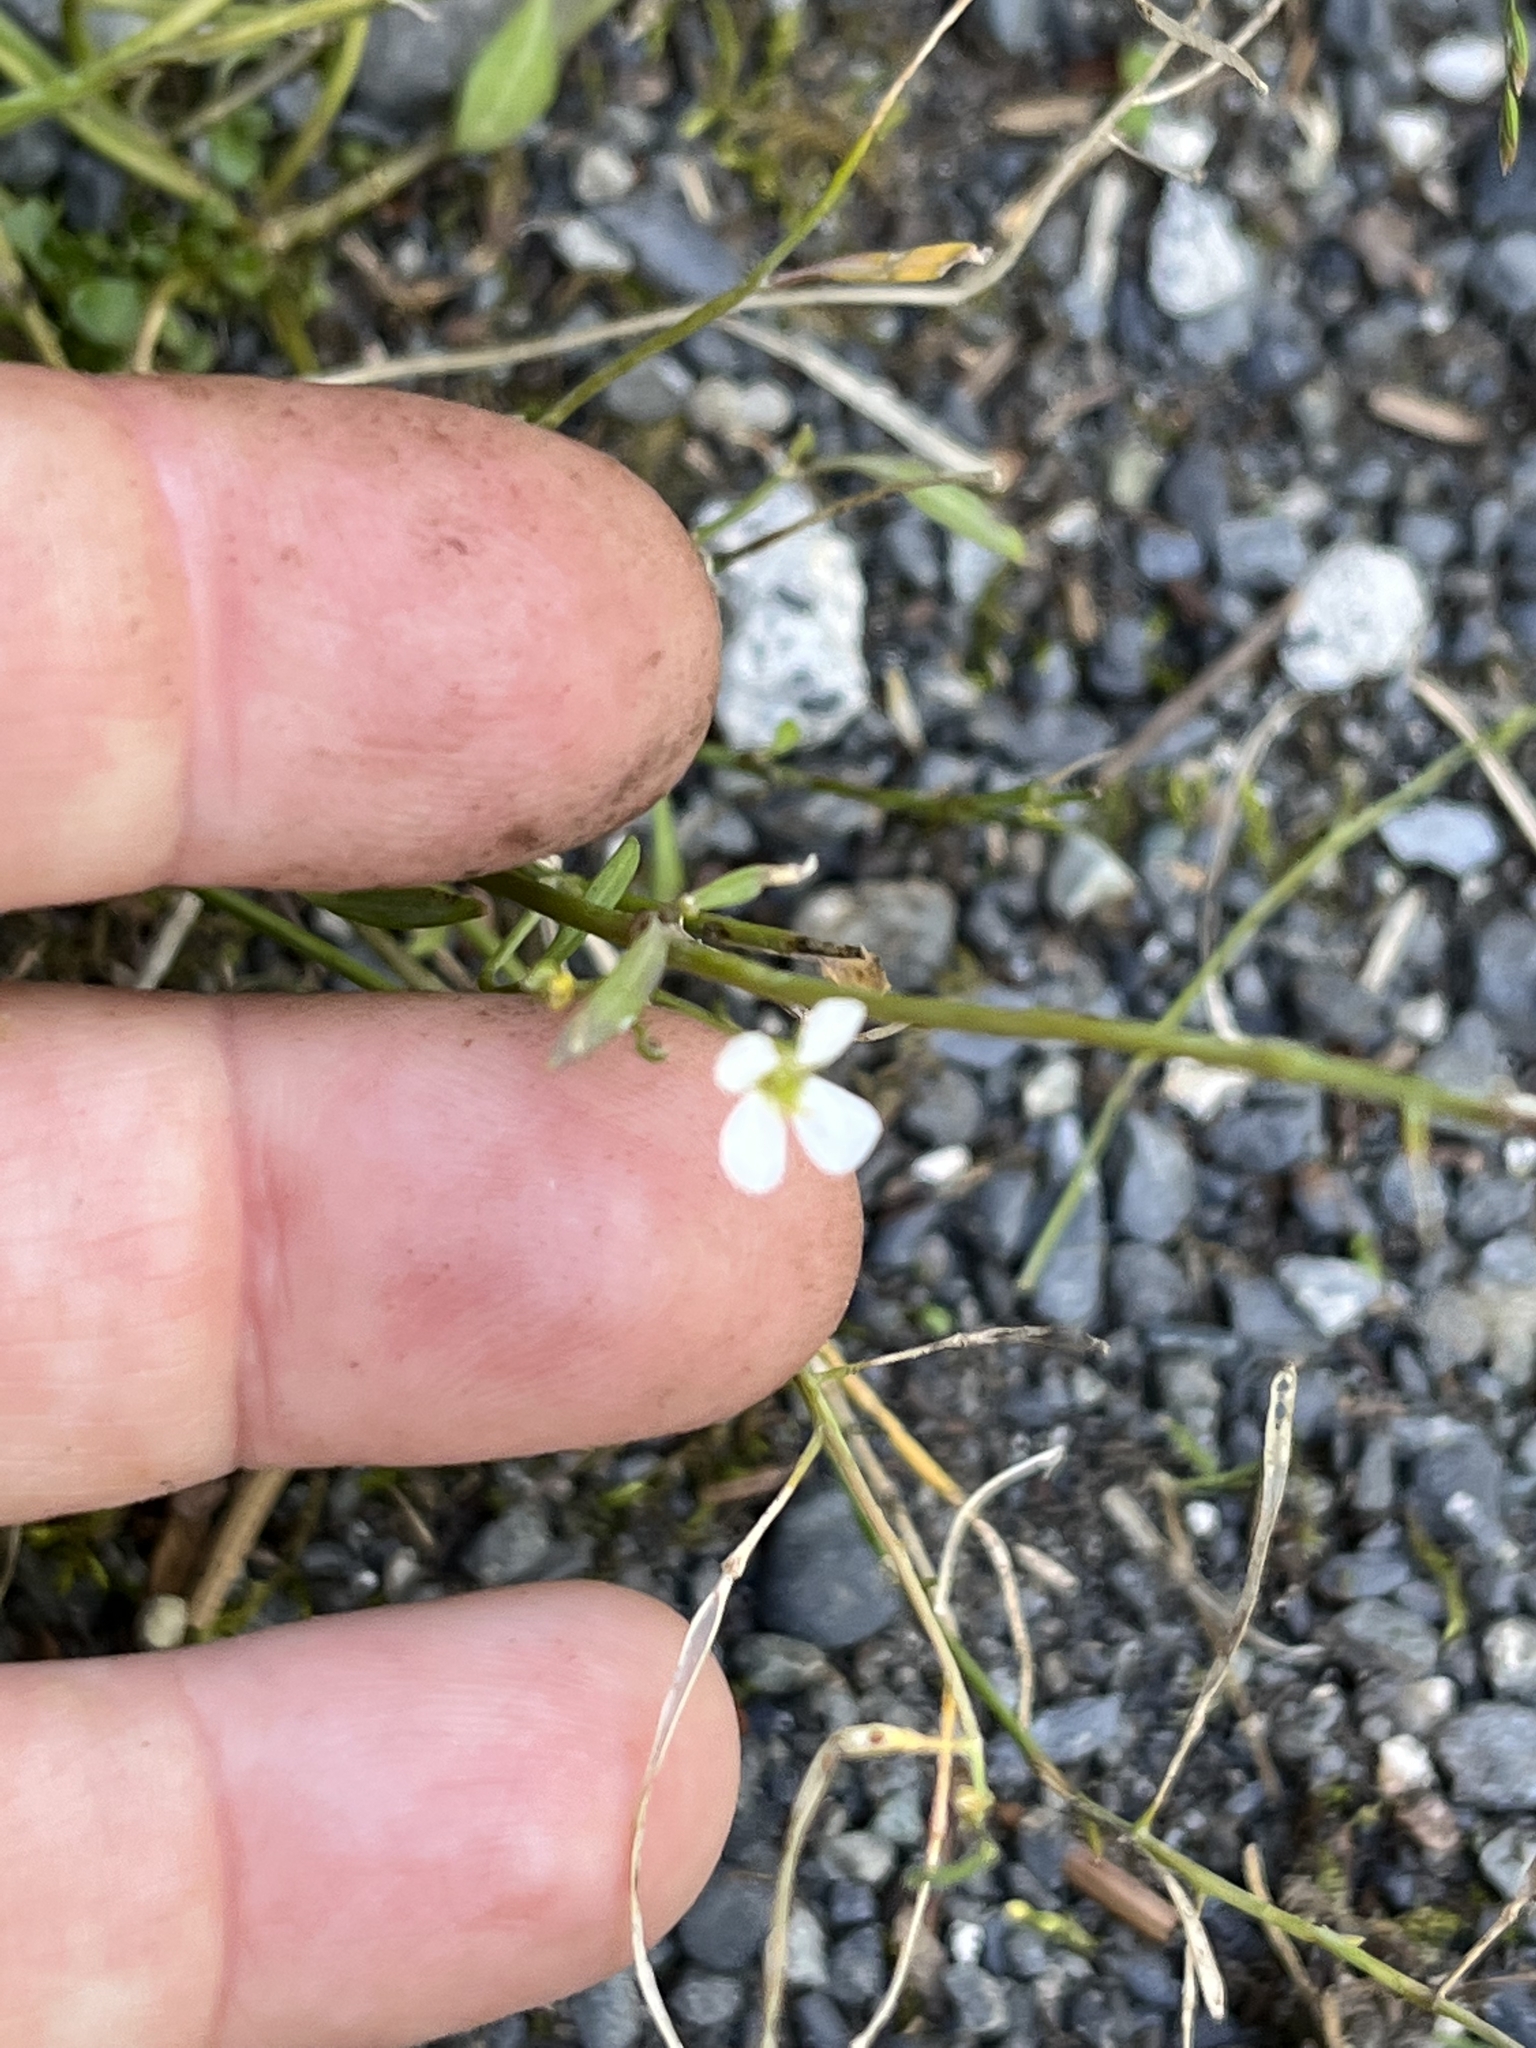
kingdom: Plantae
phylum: Tracheophyta
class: Magnoliopsida
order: Brassicales
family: Brassicaceae
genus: Arabidopsis
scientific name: Arabidopsis lyrata
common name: Lyrate rockcress
